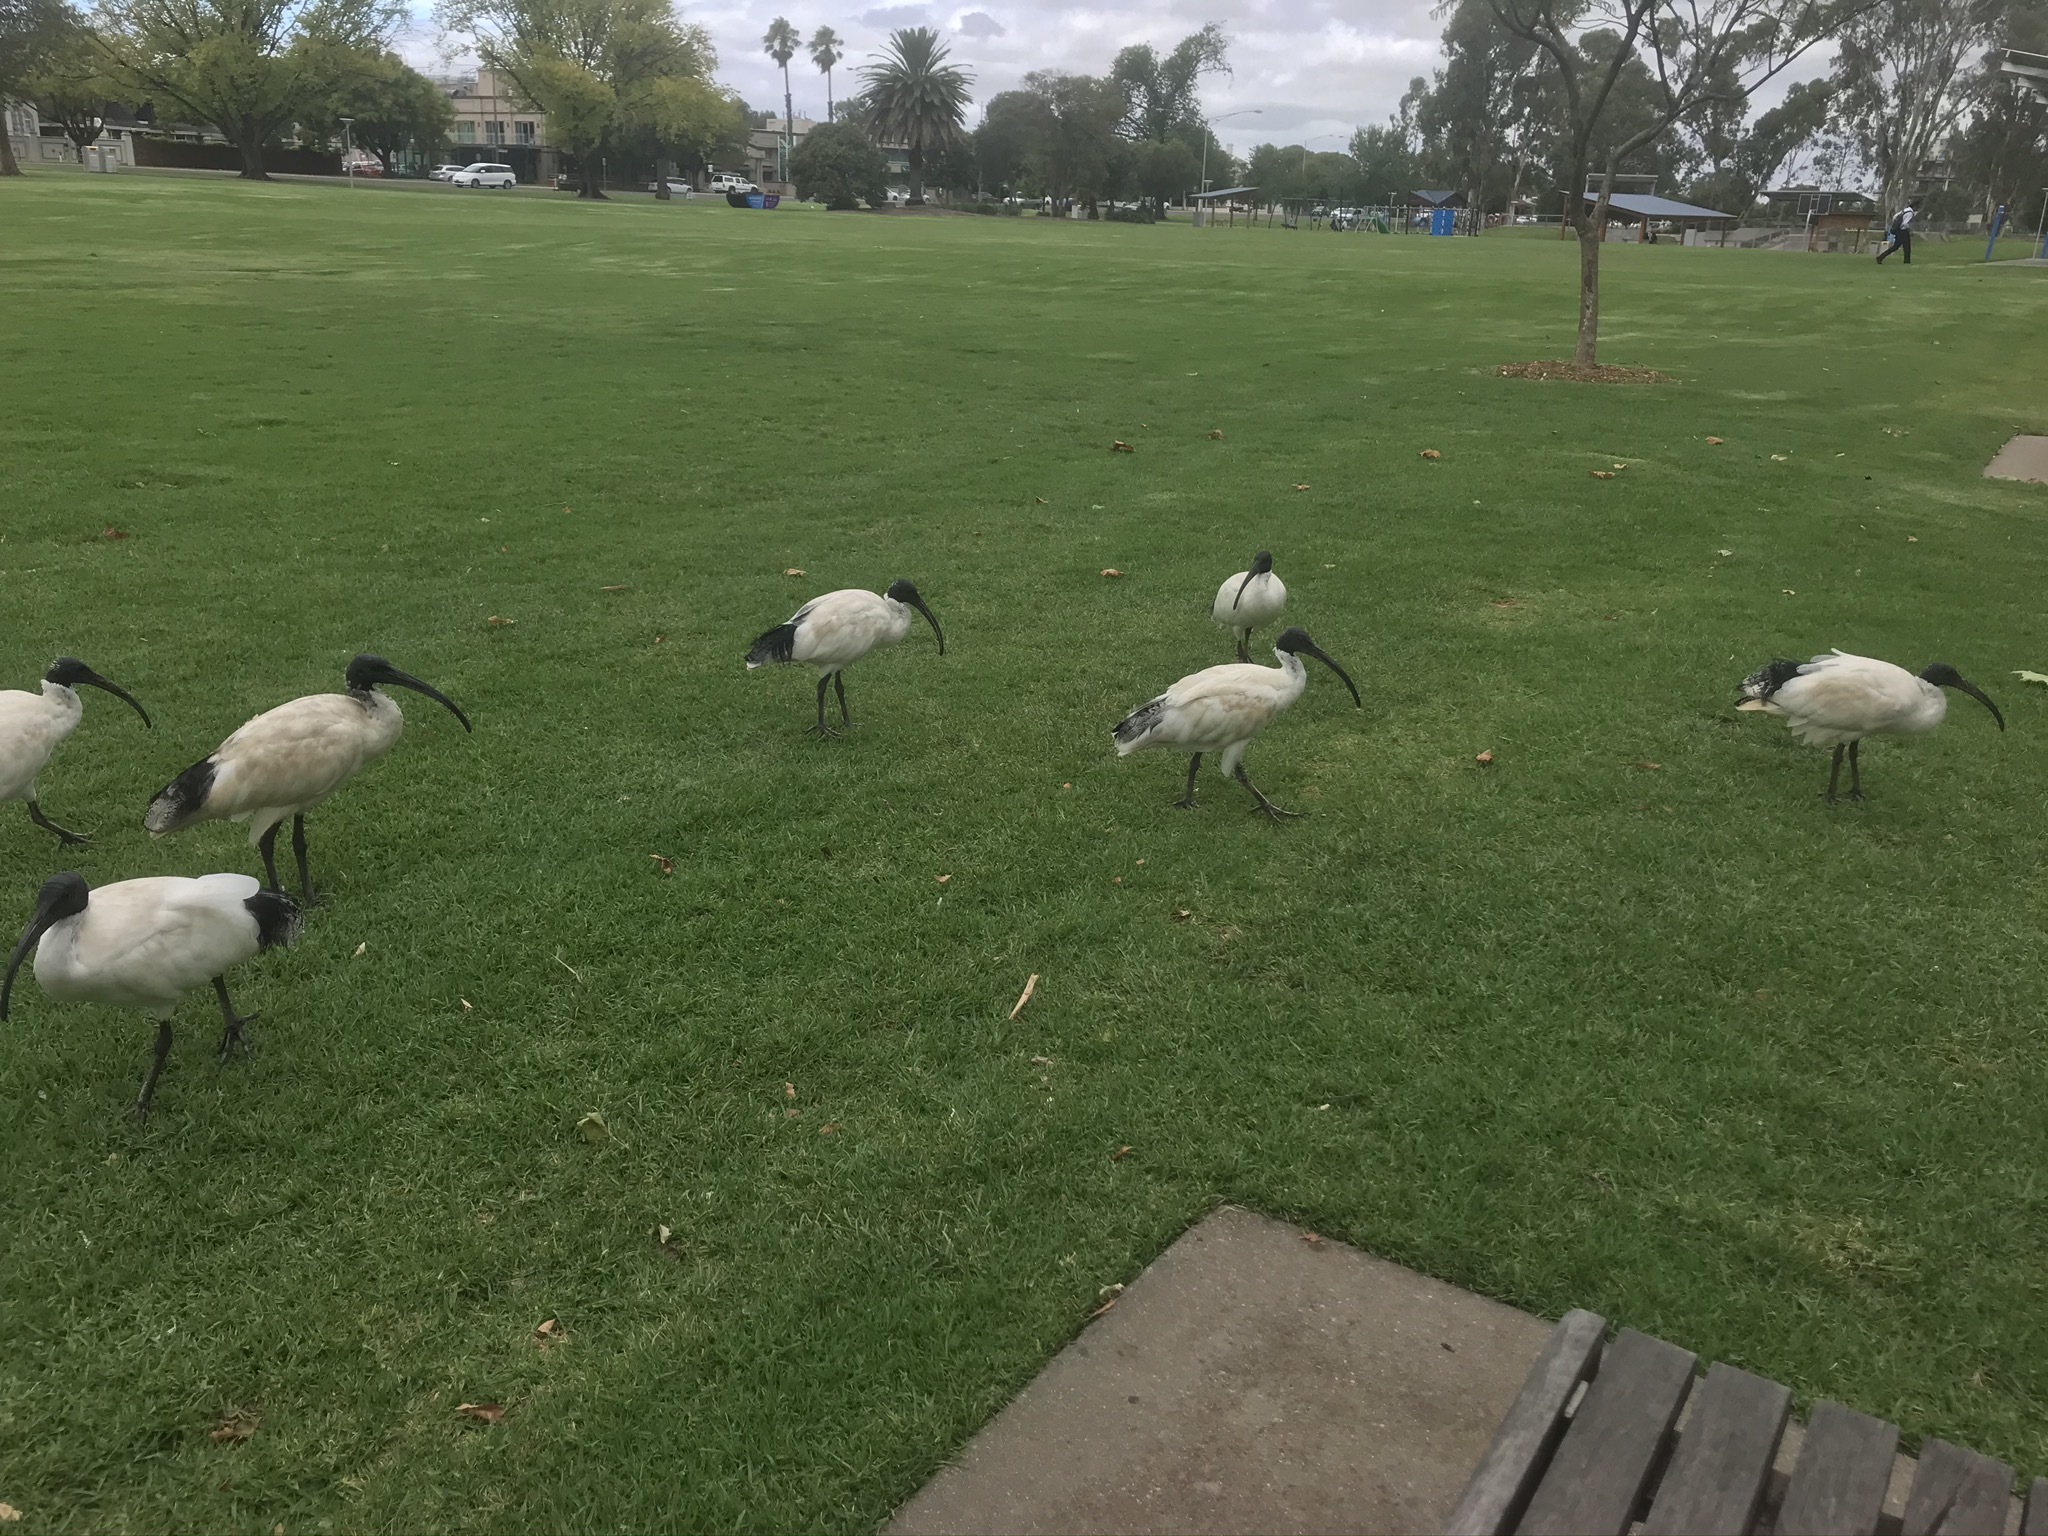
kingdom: Animalia
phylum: Chordata
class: Aves
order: Pelecaniformes
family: Threskiornithidae
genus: Threskiornis
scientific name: Threskiornis molucca
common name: Australian white ibis
